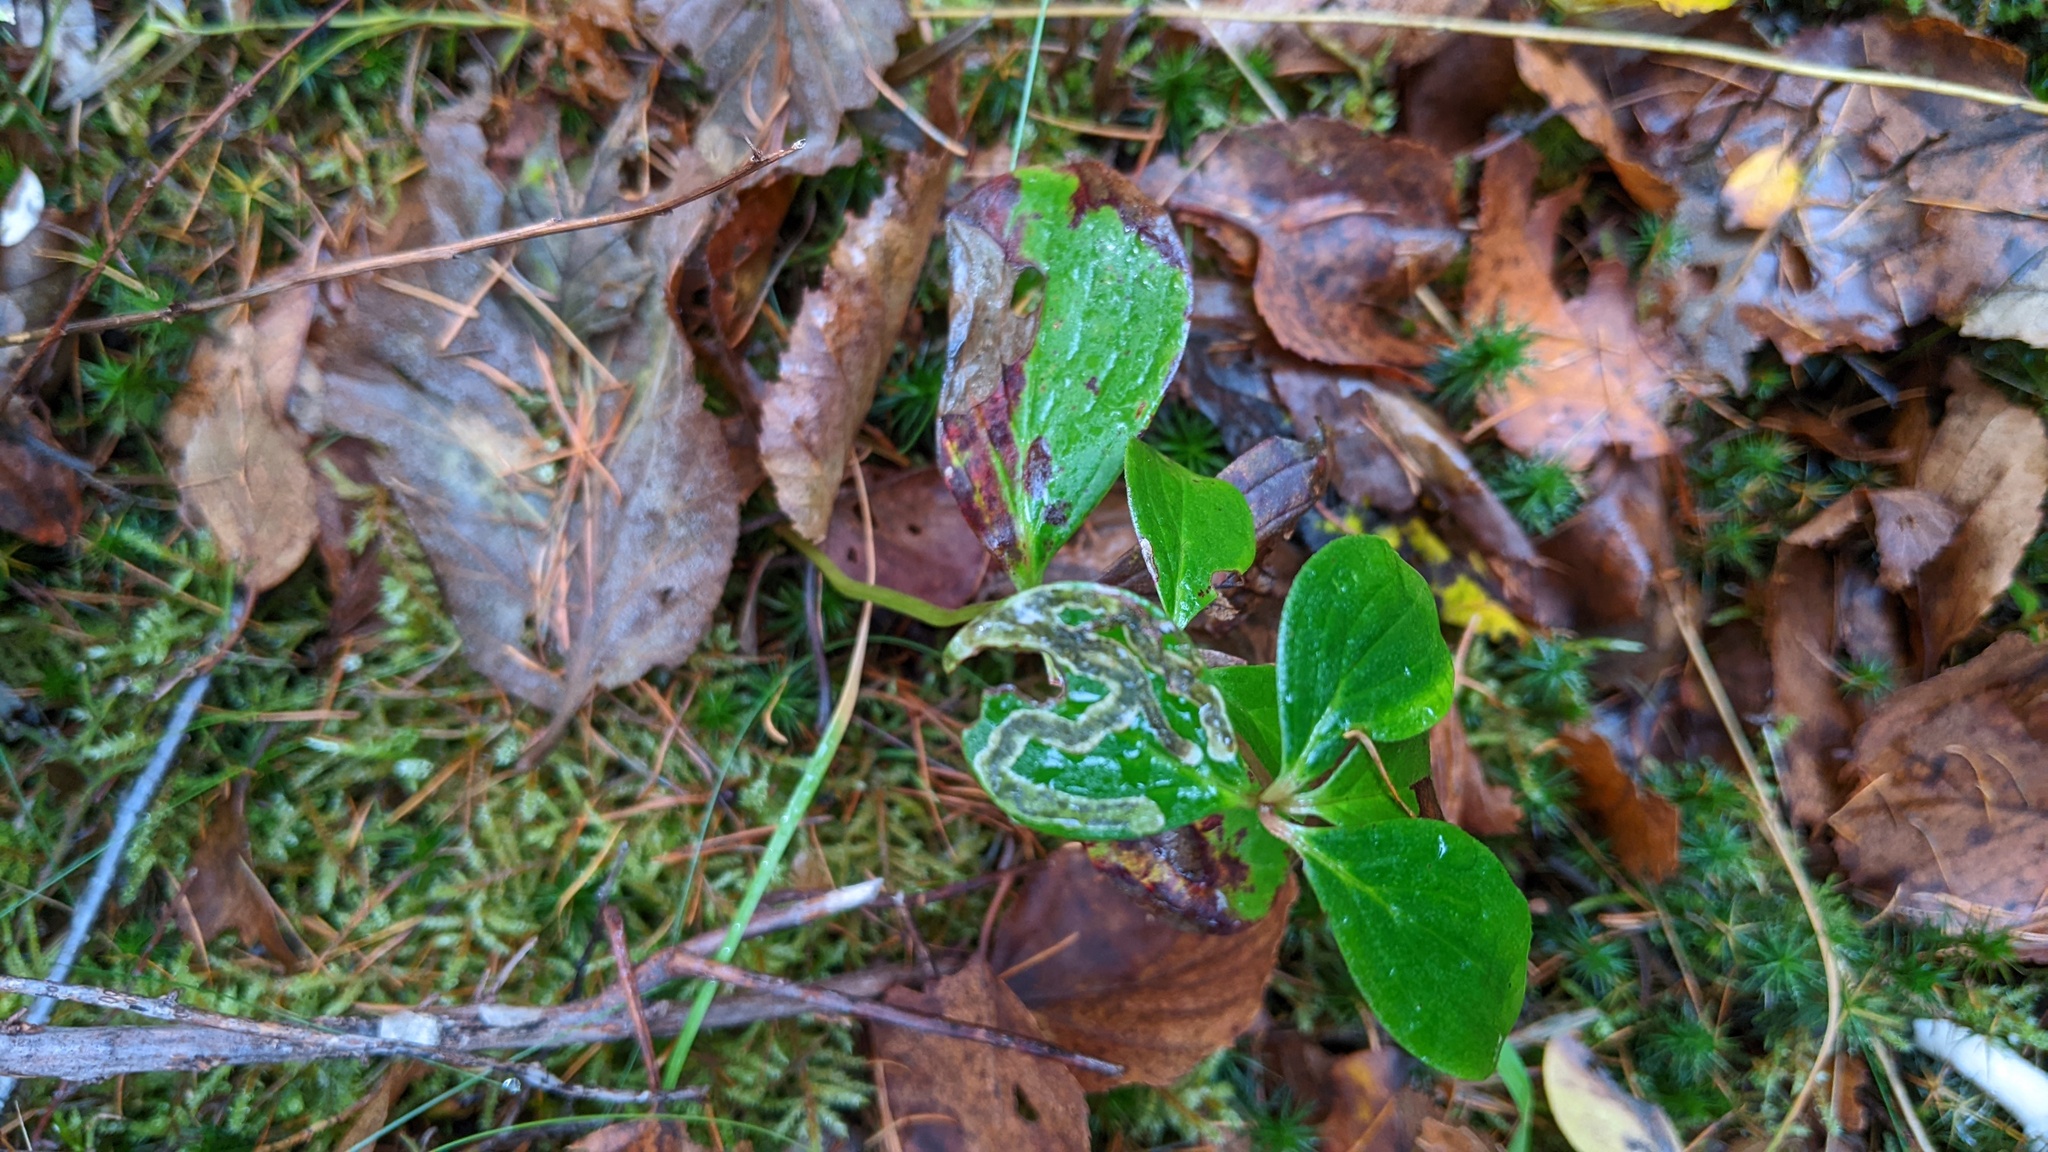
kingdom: Animalia
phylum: Arthropoda
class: Insecta
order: Diptera
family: Agromyzidae
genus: Phytomyza
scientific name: Phytomyza agromyzina
